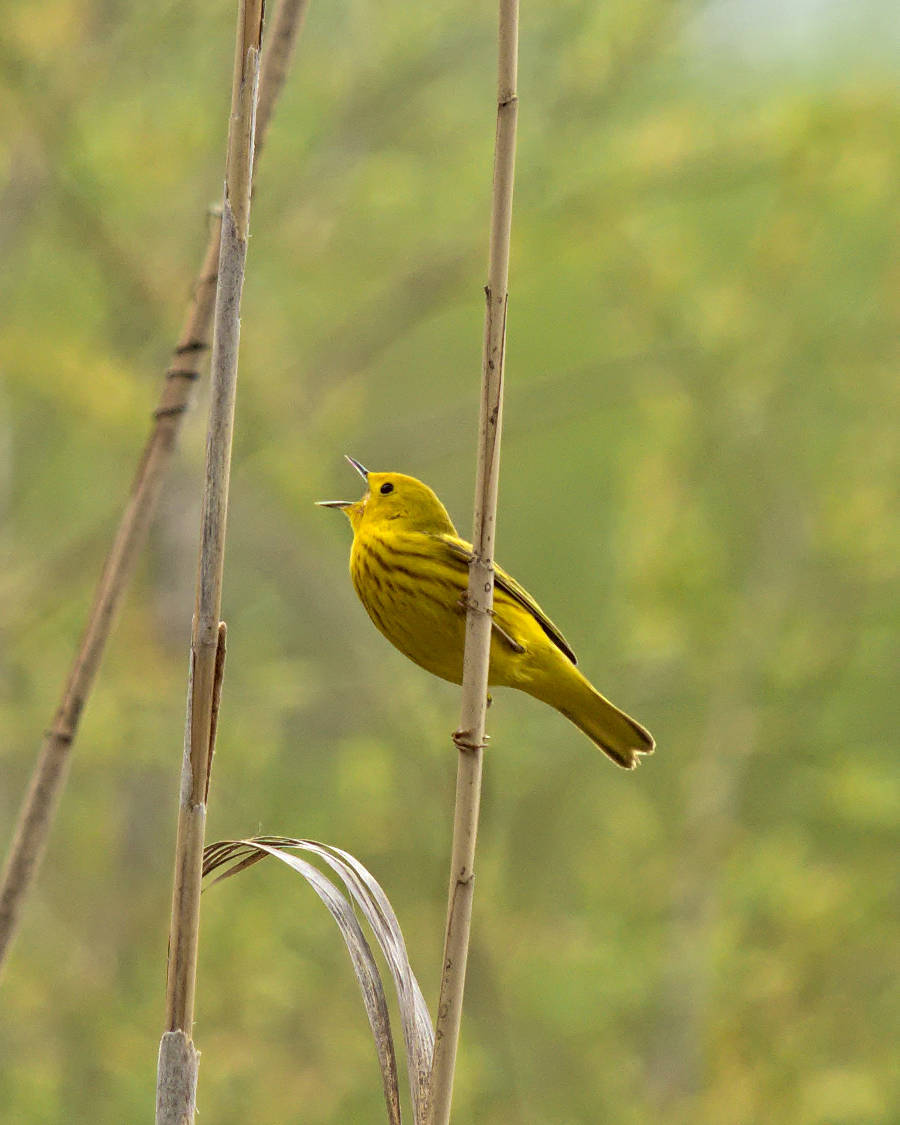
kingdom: Animalia
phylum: Chordata
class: Aves
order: Passeriformes
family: Parulidae
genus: Setophaga
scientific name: Setophaga petechia
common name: Yellow warbler
